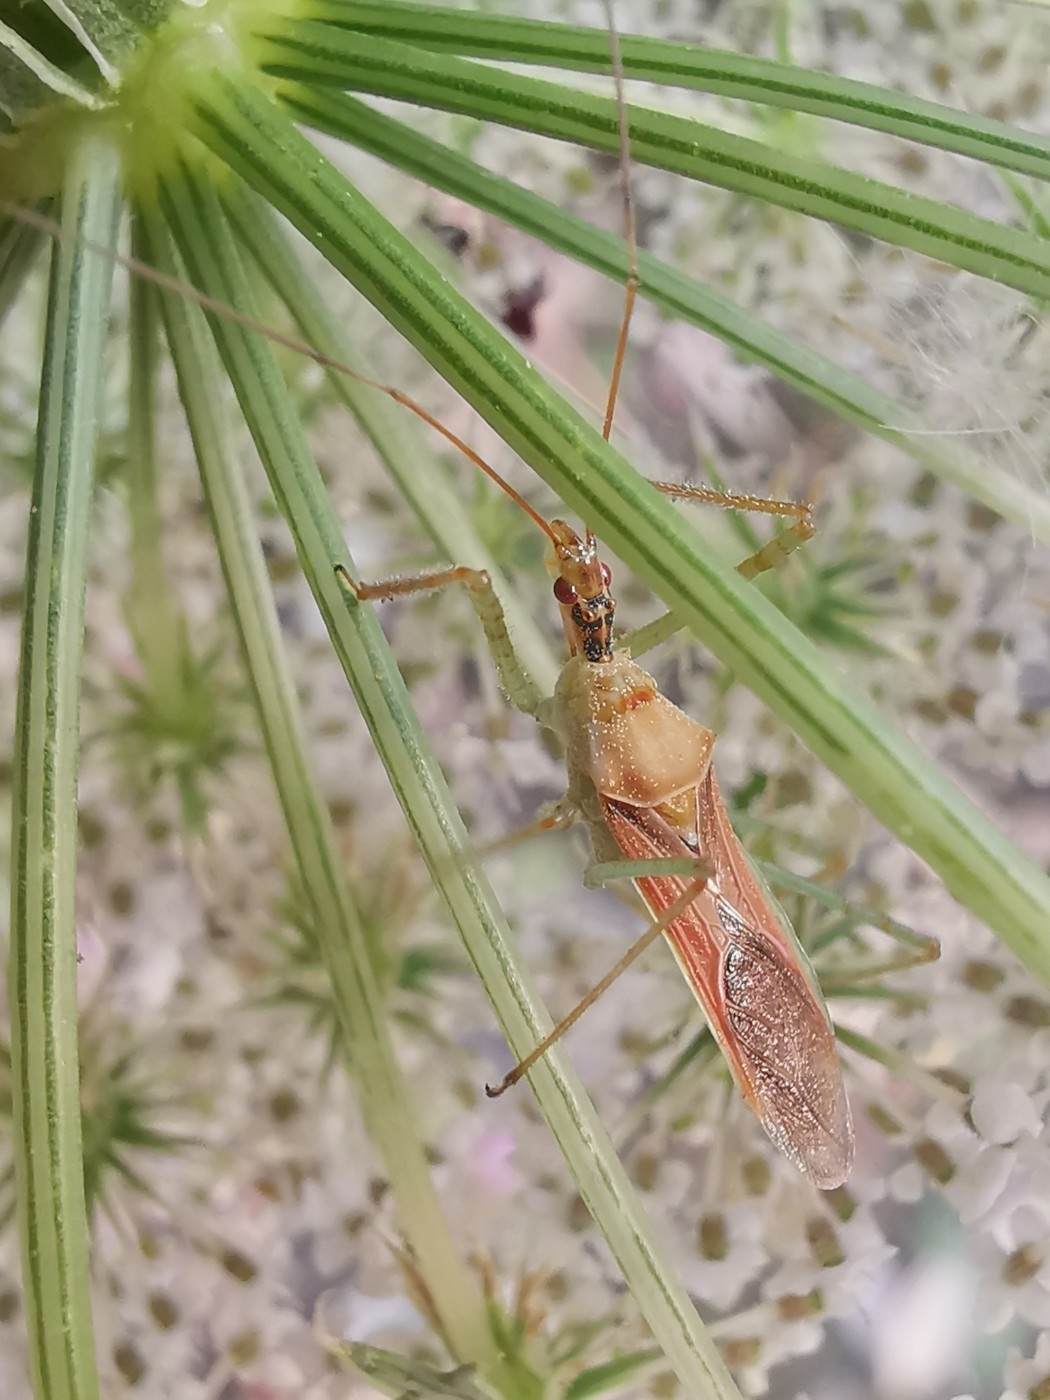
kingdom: Animalia
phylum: Arthropoda
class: Insecta
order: Hemiptera
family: Reduviidae
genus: Zelus
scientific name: Zelus renardii
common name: Assassin bug
